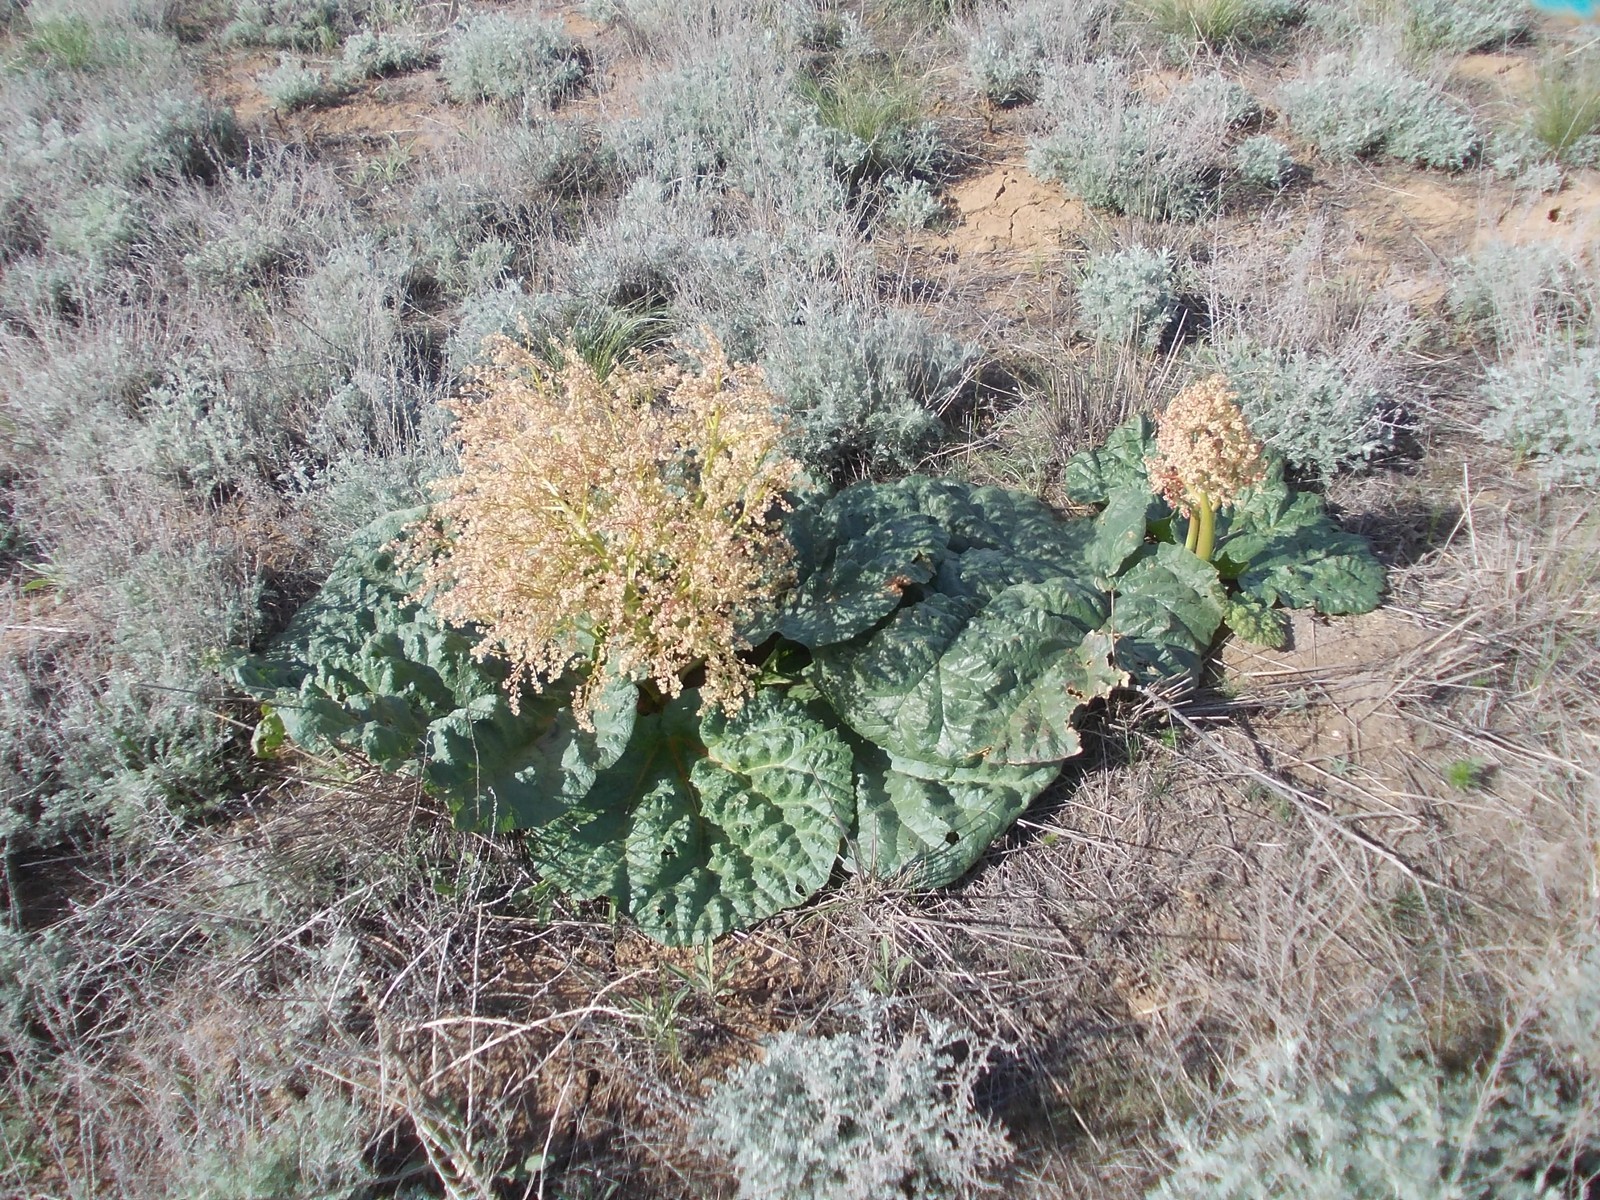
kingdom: Plantae
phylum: Tracheophyta
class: Magnoliopsida
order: Caryophyllales
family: Polygonaceae
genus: Rheum
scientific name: Rheum tataricum
